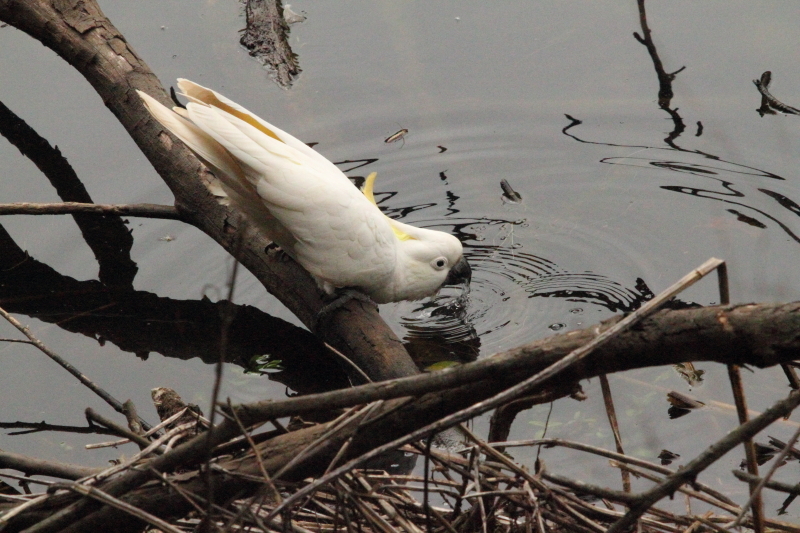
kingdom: Animalia
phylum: Chordata
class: Aves
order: Psittaciformes
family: Psittacidae
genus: Cacatua
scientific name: Cacatua galerita
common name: Sulphur-crested cockatoo
